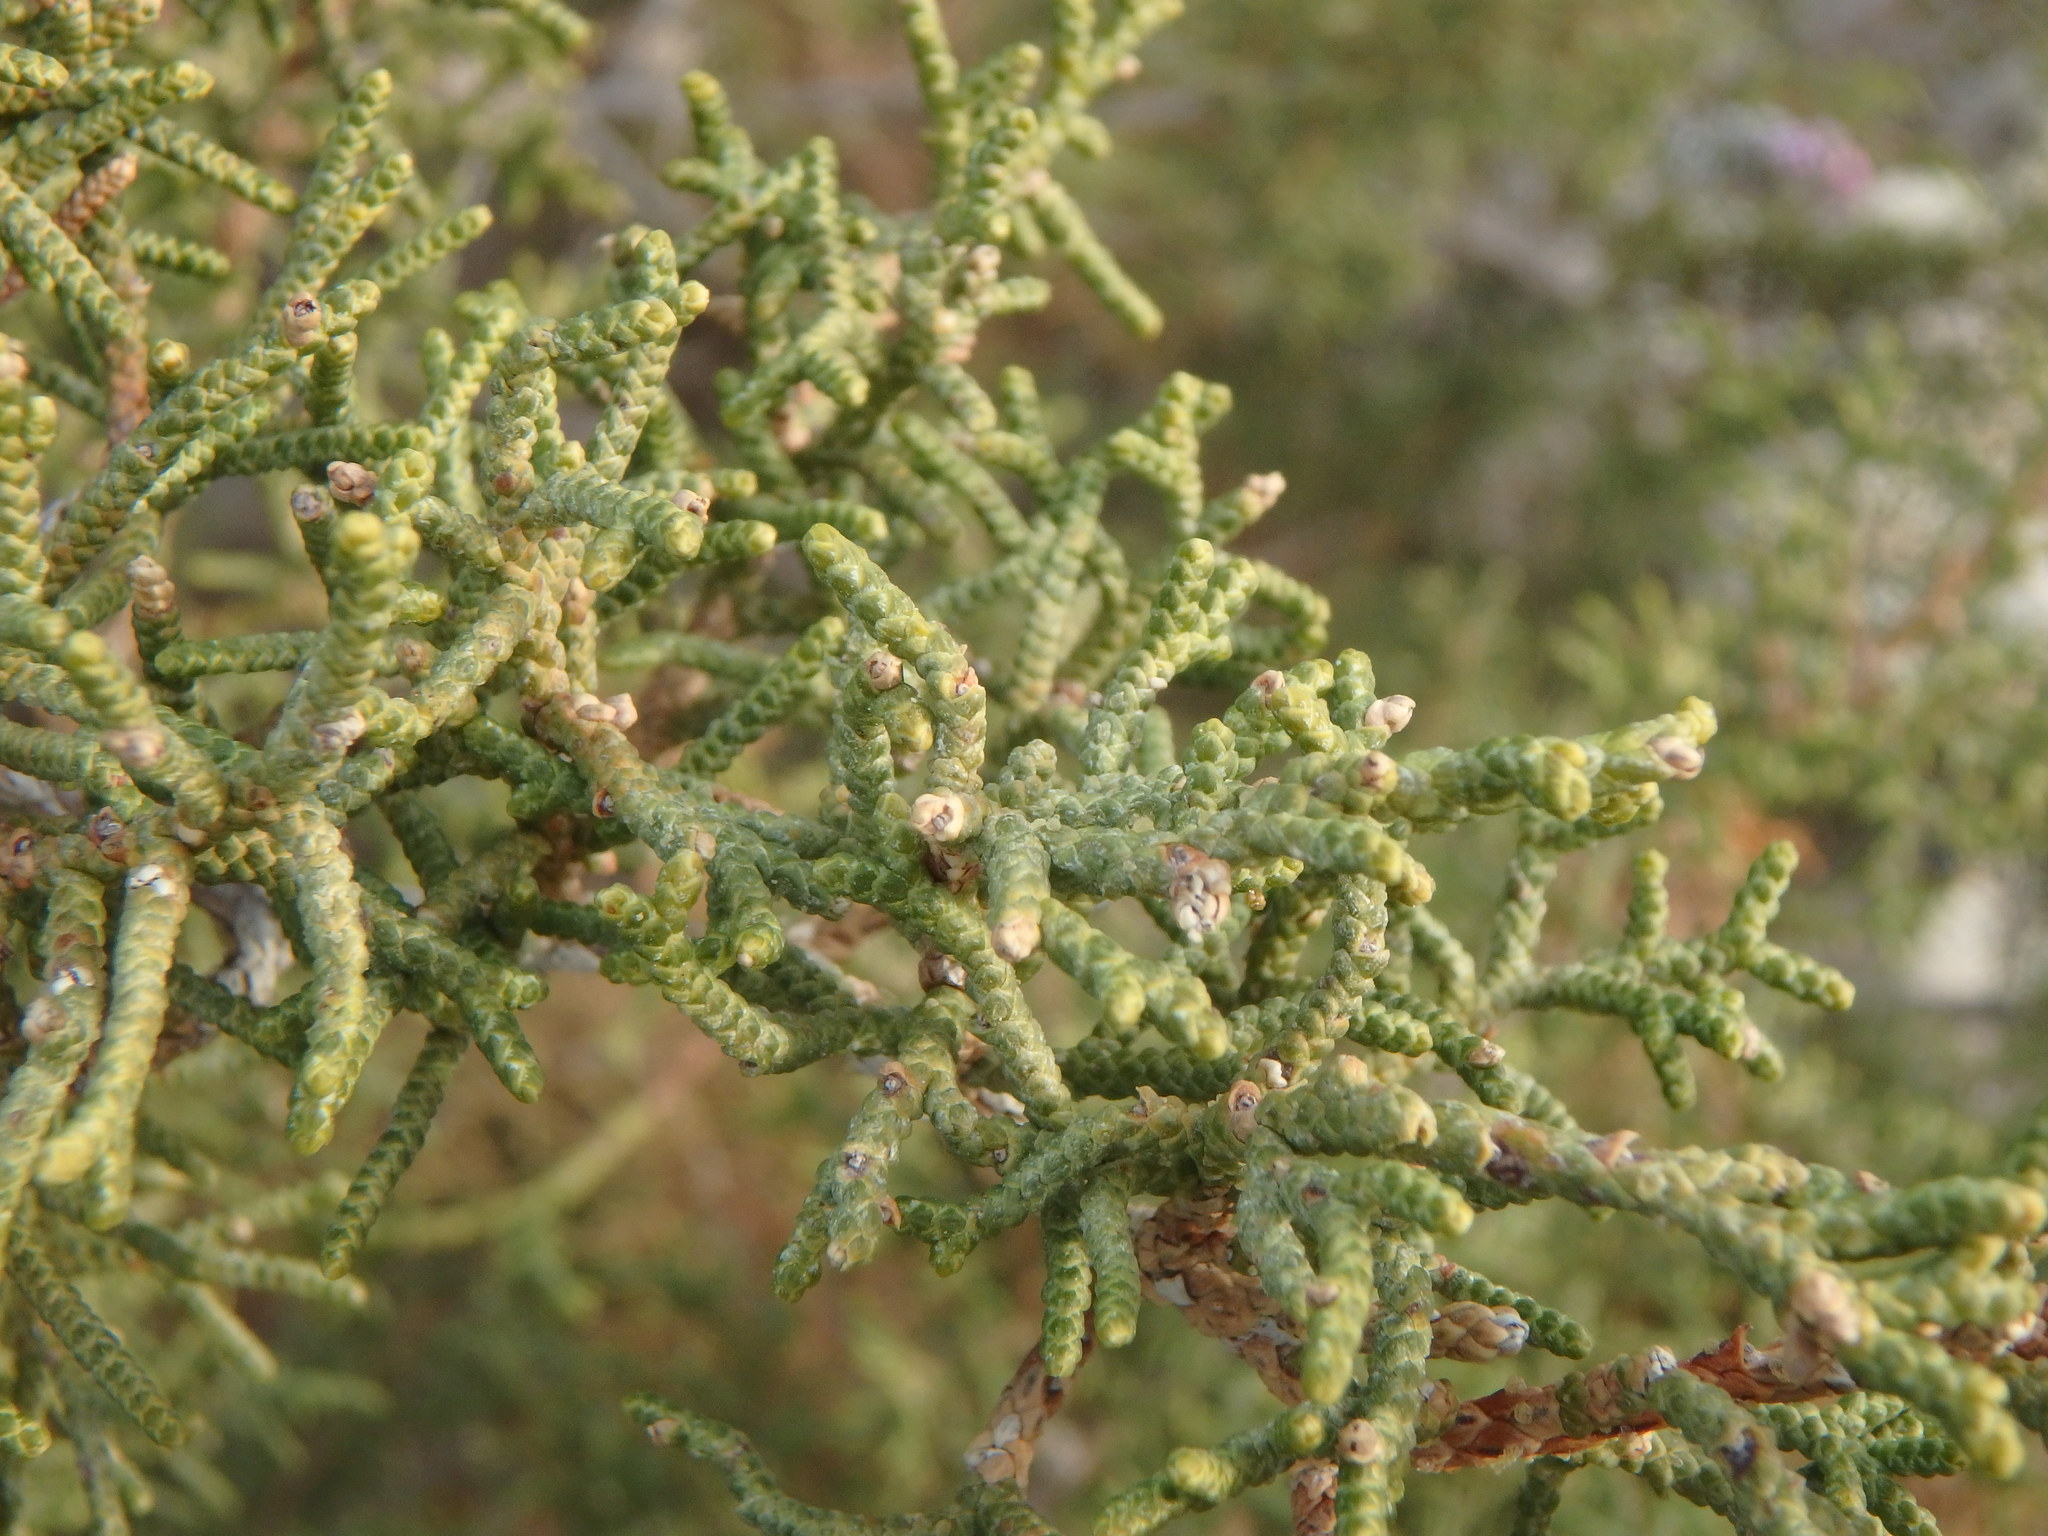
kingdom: Plantae
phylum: Tracheophyta
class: Pinopsida
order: Pinales
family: Cupressaceae
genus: Juniperus
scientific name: Juniperus phoenicea
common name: Phoenician juniper
